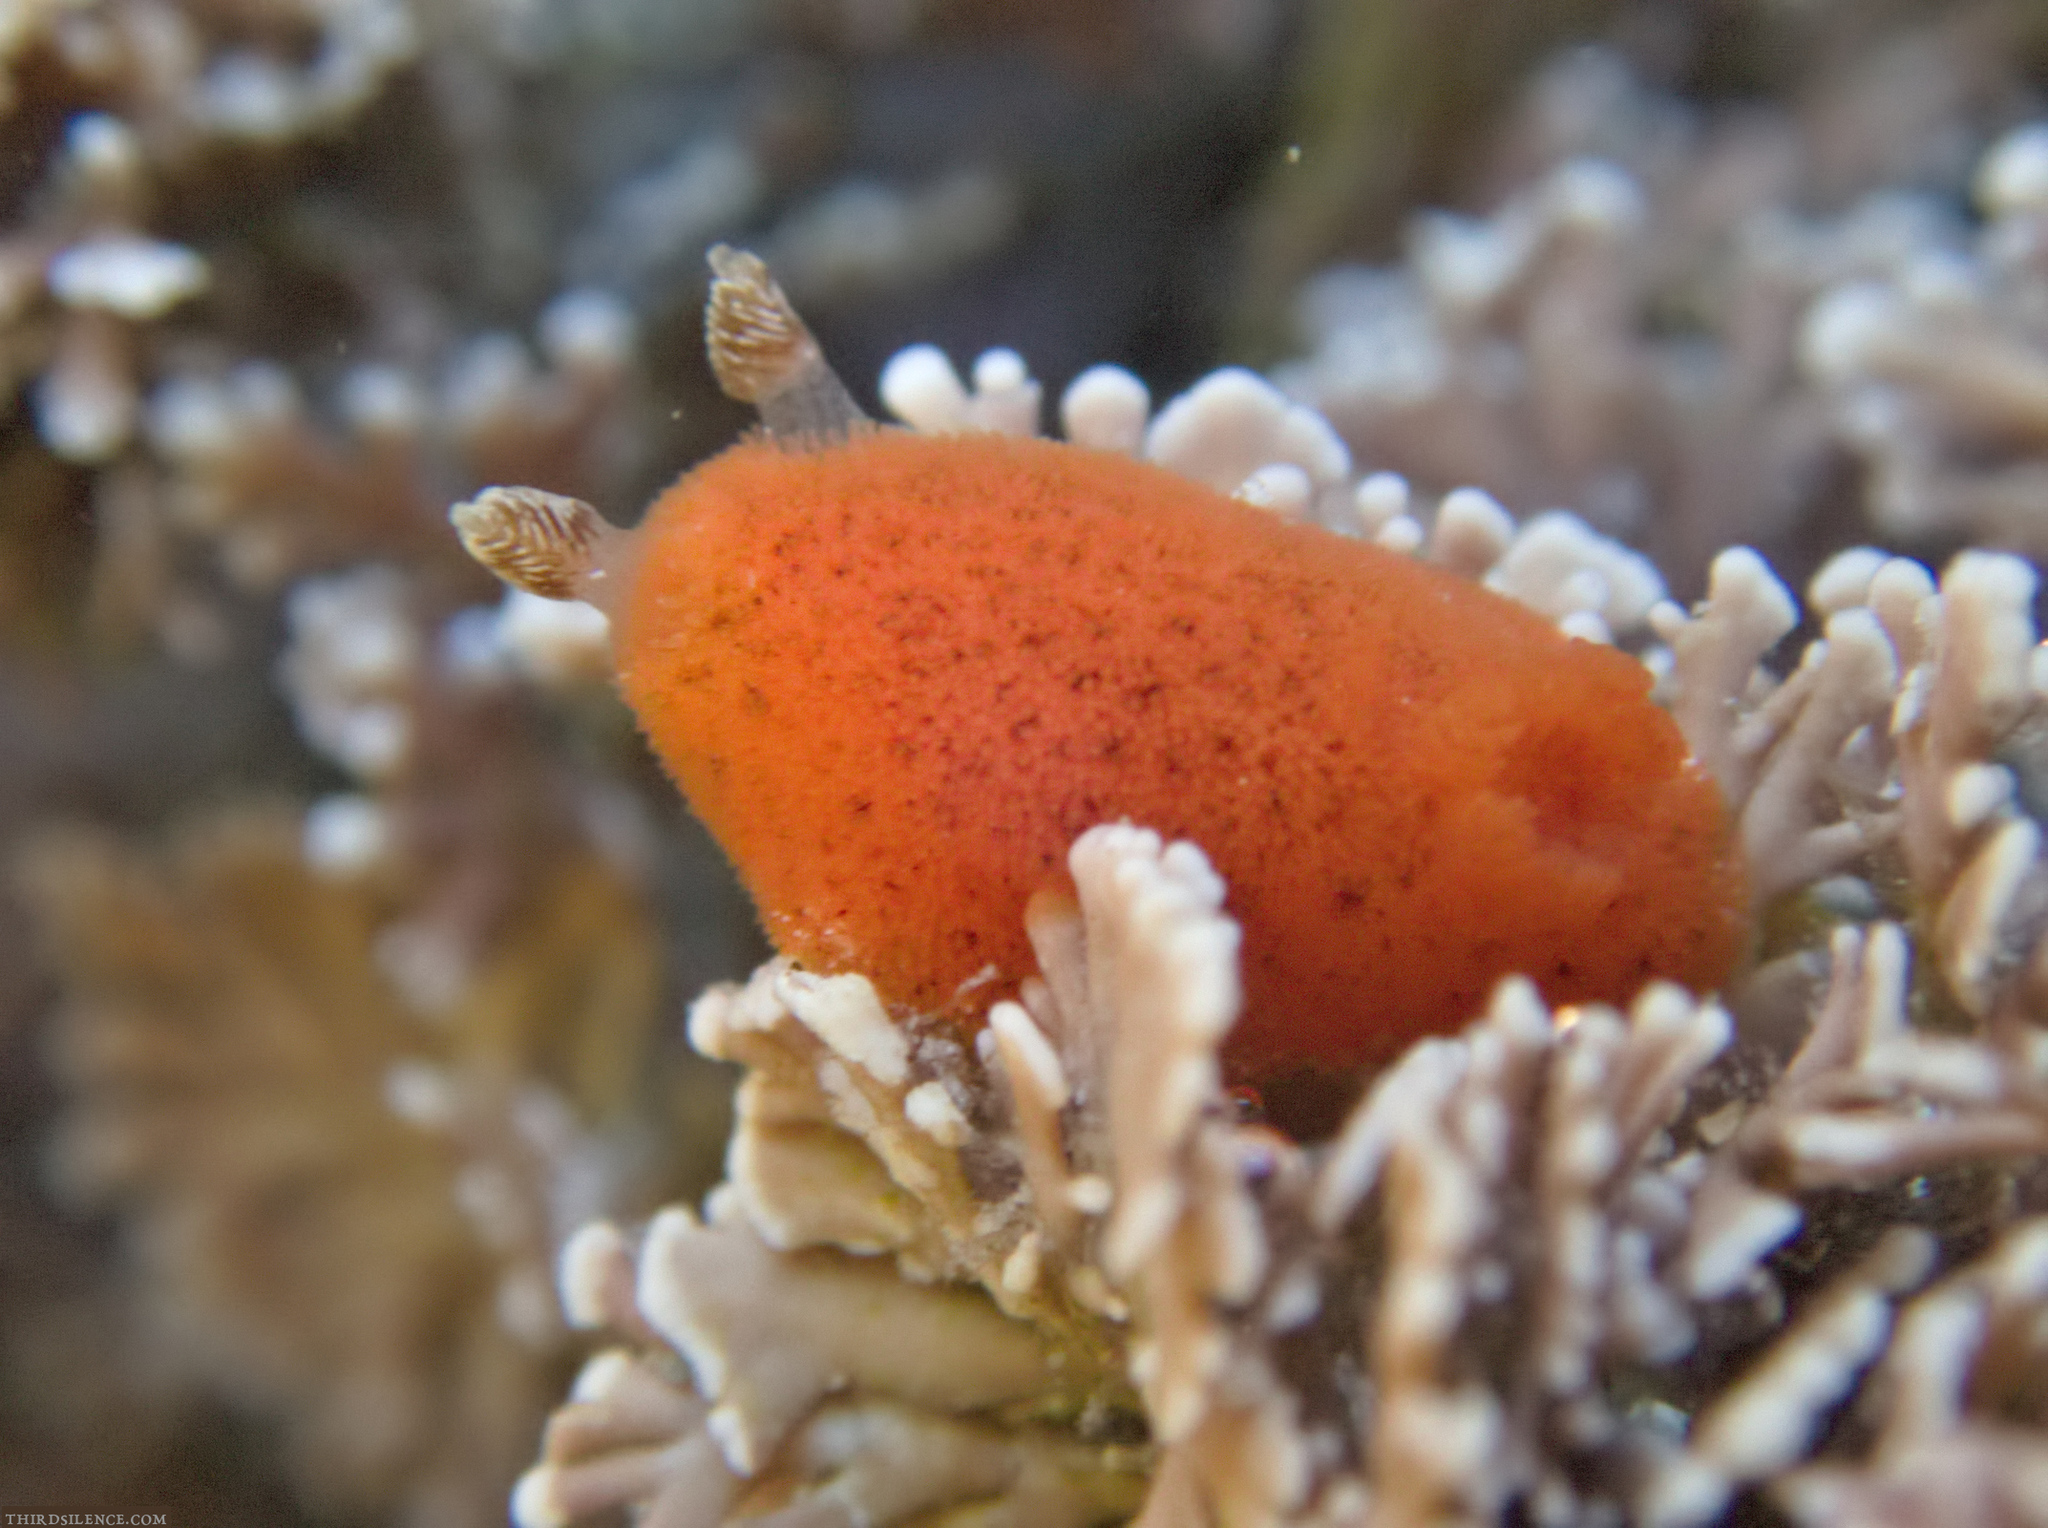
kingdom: Animalia
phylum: Mollusca
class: Gastropoda
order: Nudibranchia
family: Discodorididae
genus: Rostanga
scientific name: Rostanga arbutus
